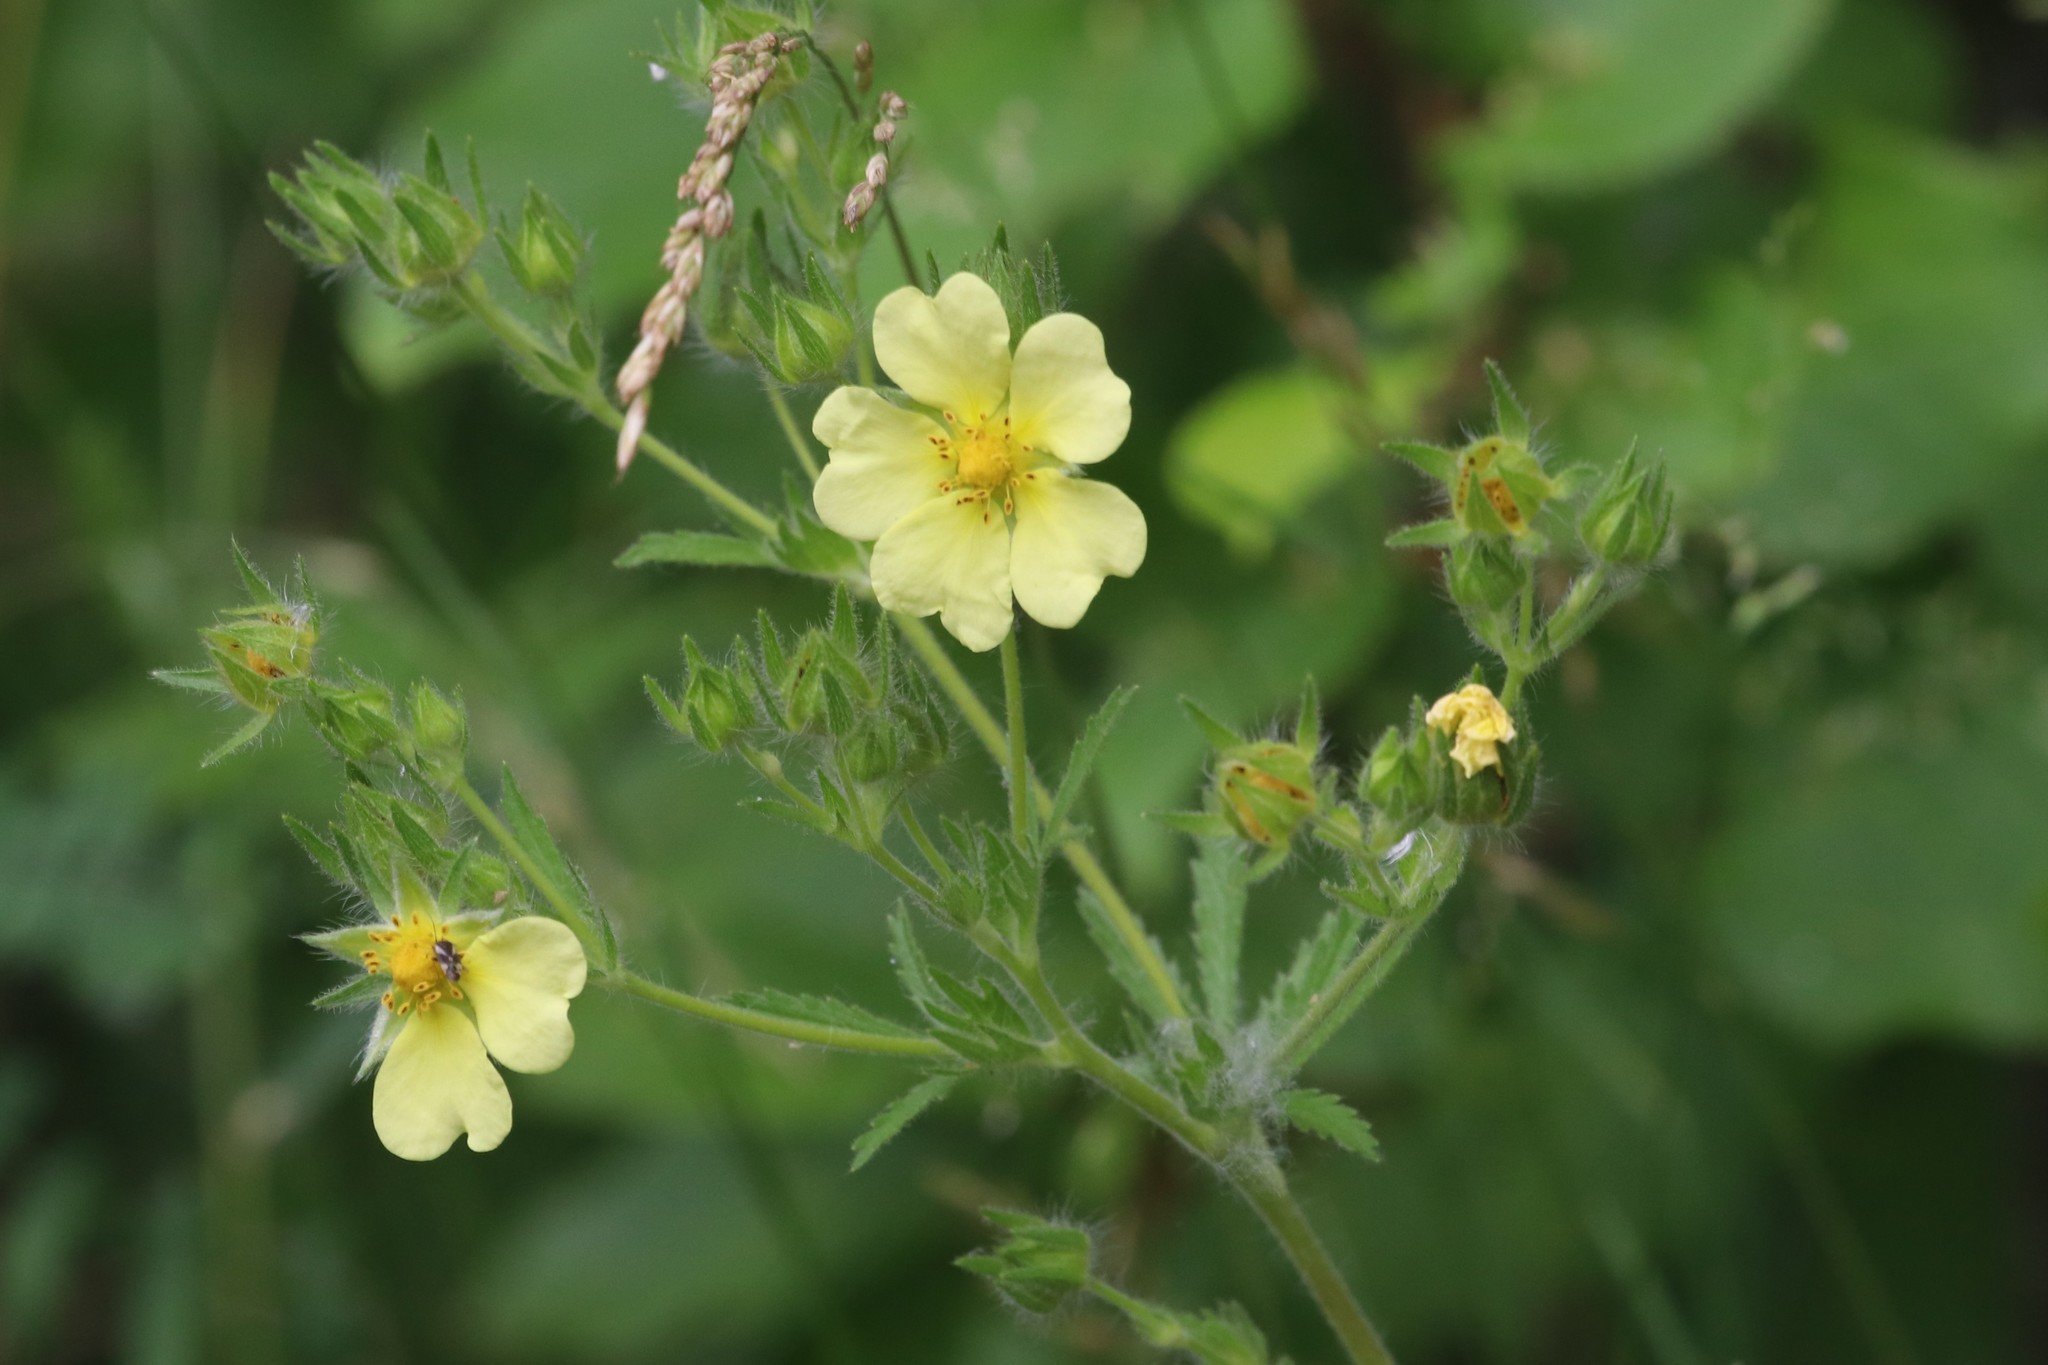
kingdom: Plantae
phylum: Tracheophyta
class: Magnoliopsida
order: Rosales
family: Rosaceae
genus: Potentilla
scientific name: Potentilla recta
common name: Sulphur cinquefoil
